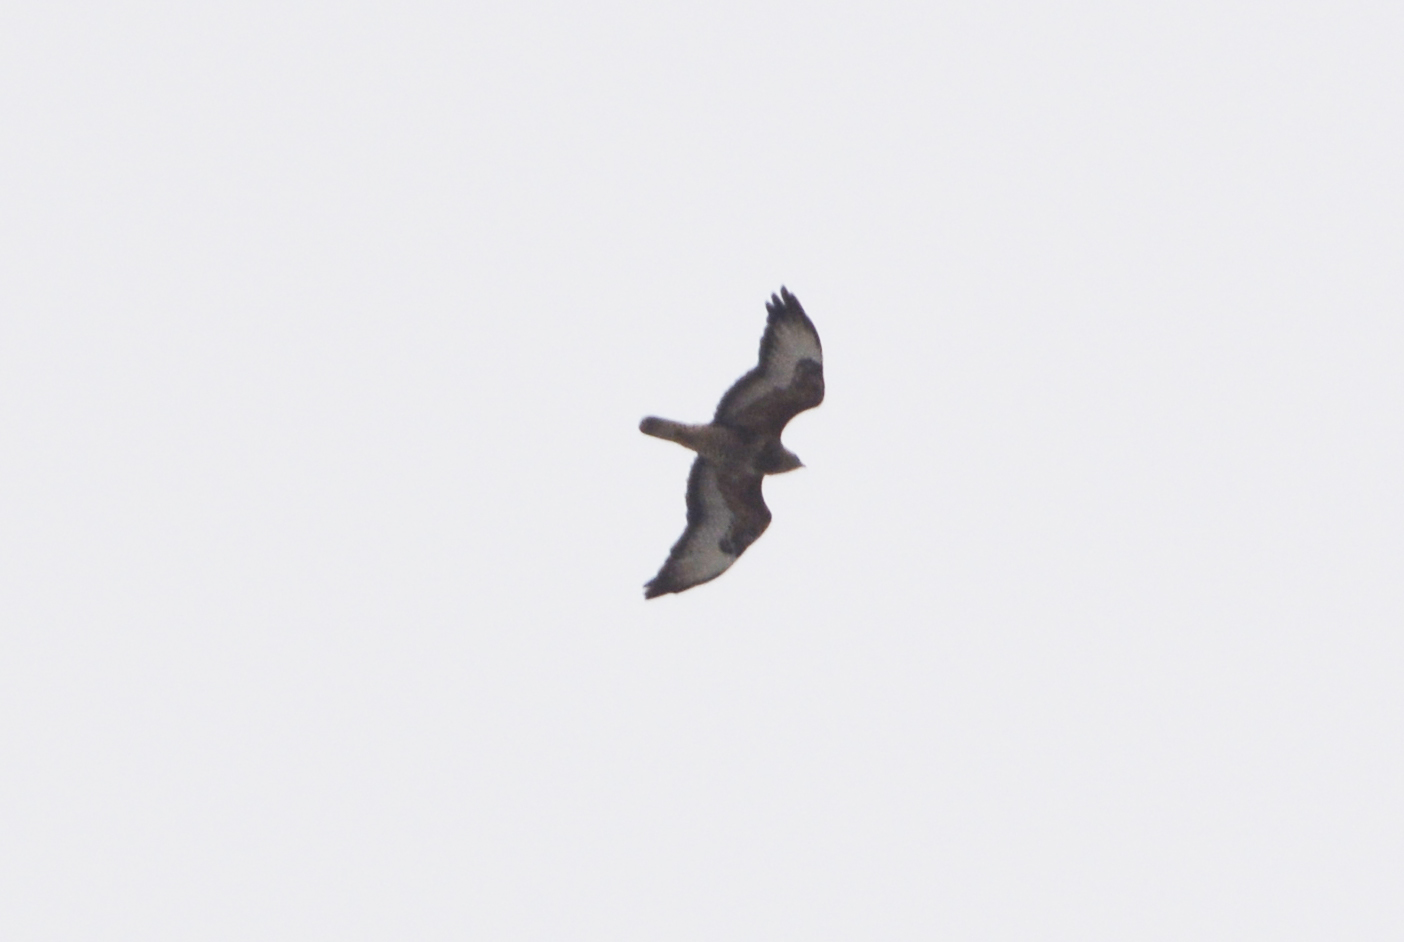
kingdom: Animalia
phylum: Chordata
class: Aves
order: Accipitriformes
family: Accipitridae
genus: Buteo
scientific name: Buteo buteo
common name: Common buzzard
